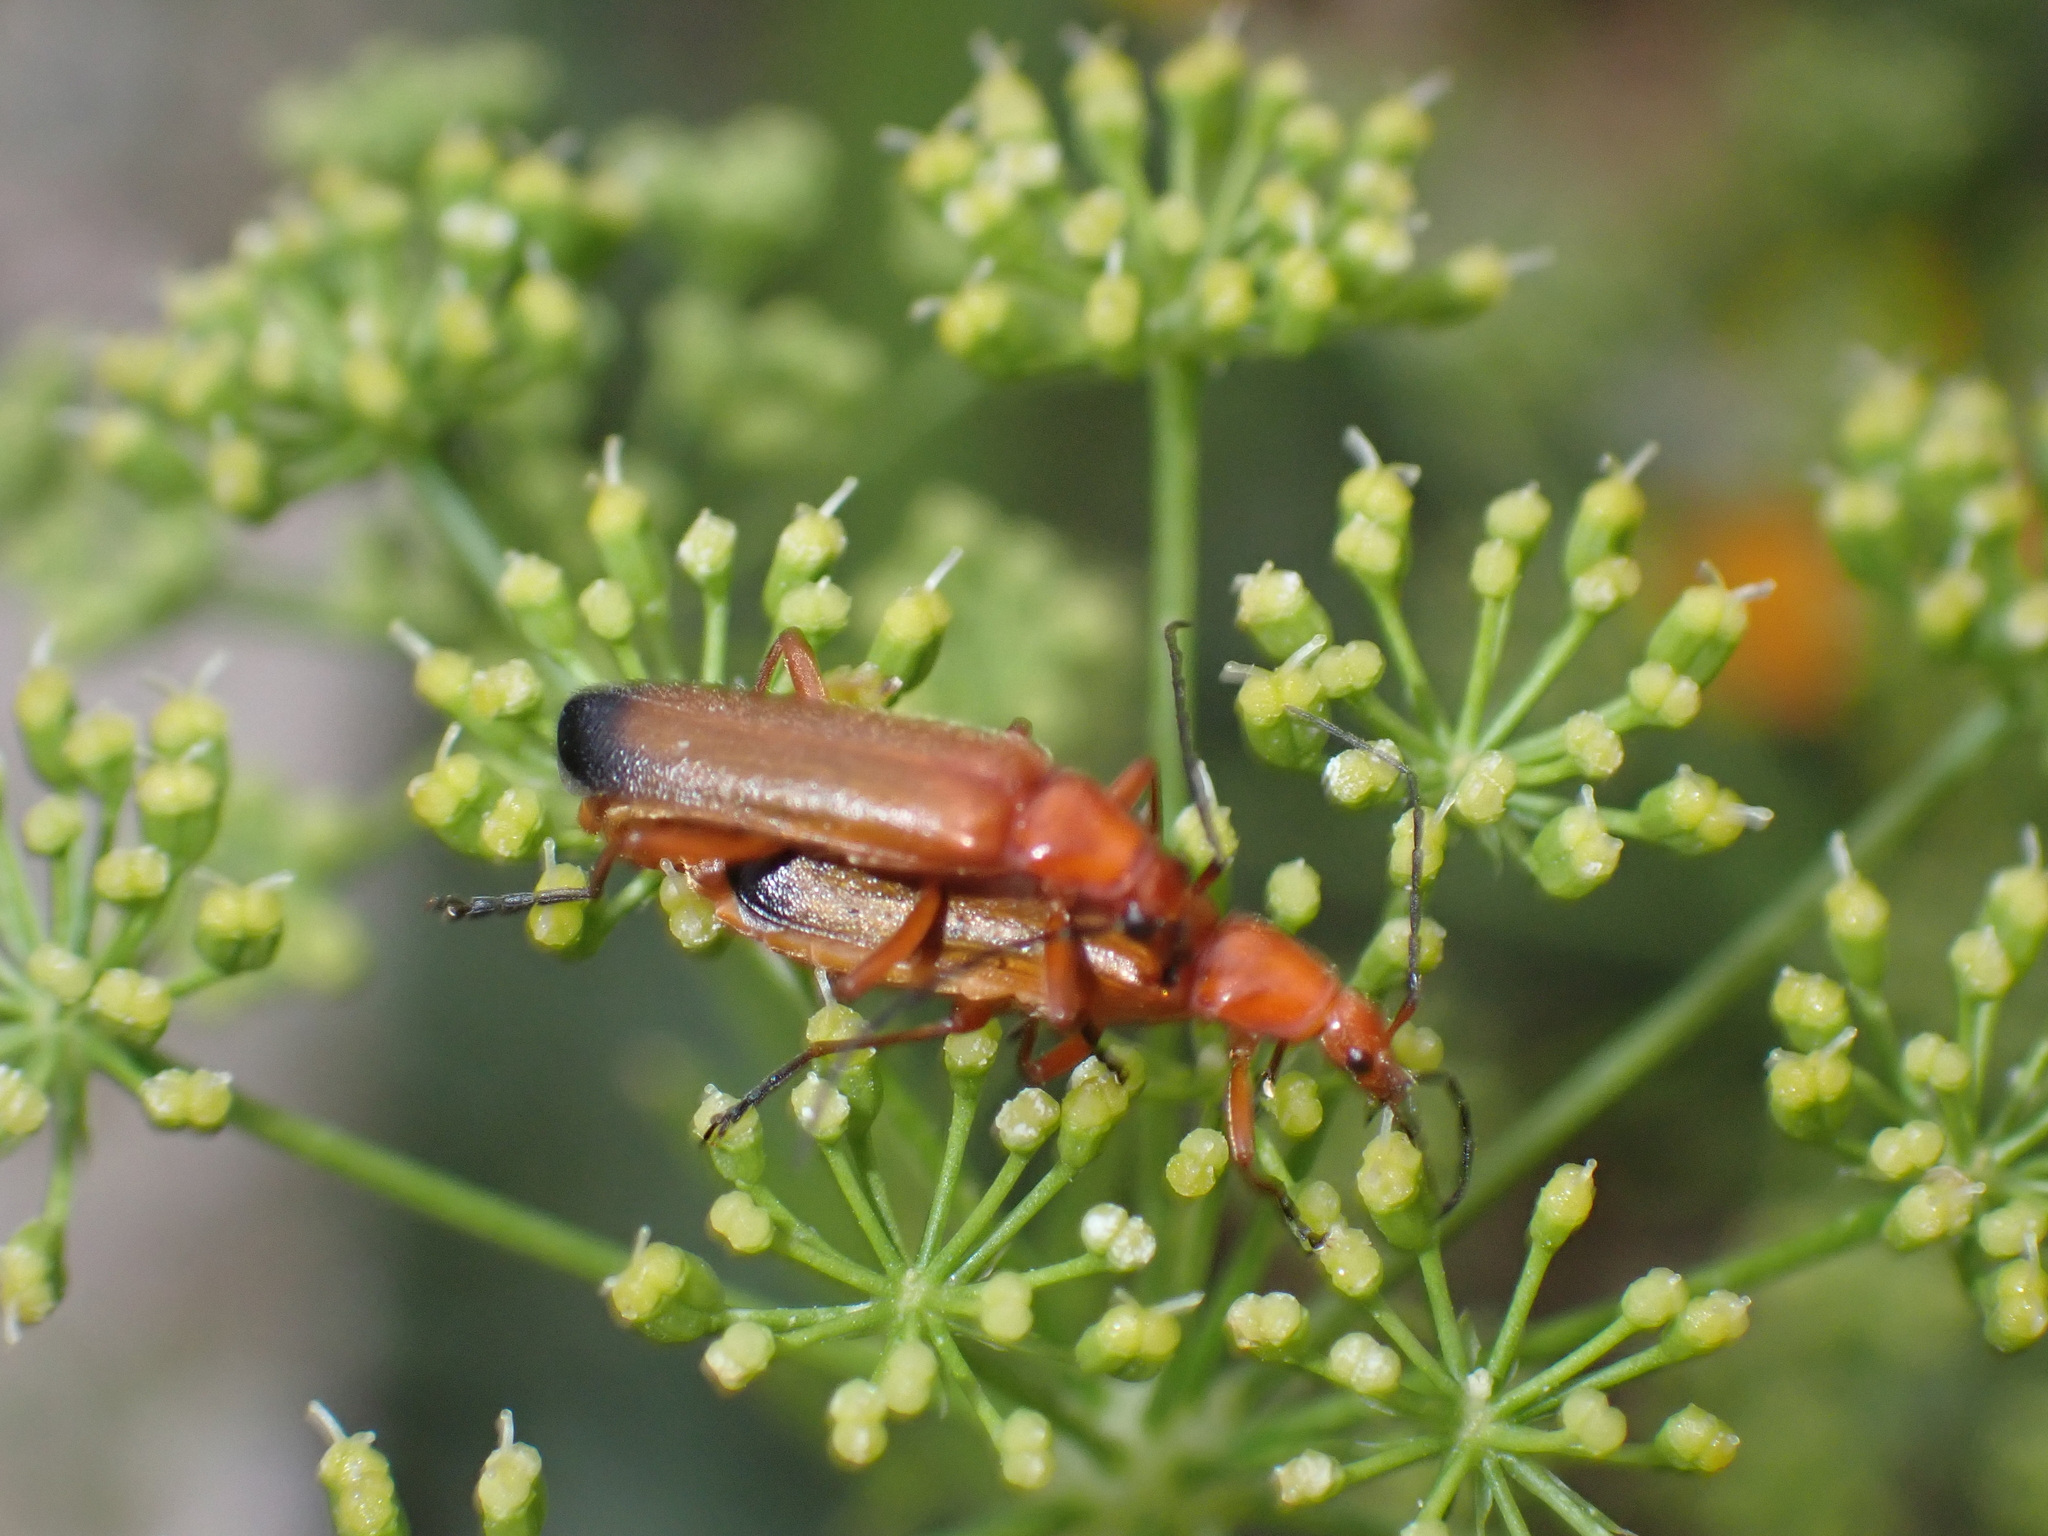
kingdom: Animalia
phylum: Arthropoda
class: Insecta
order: Coleoptera
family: Cantharidae
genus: Rhagonycha
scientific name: Rhagonycha fulva
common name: Common red soldier beetle
